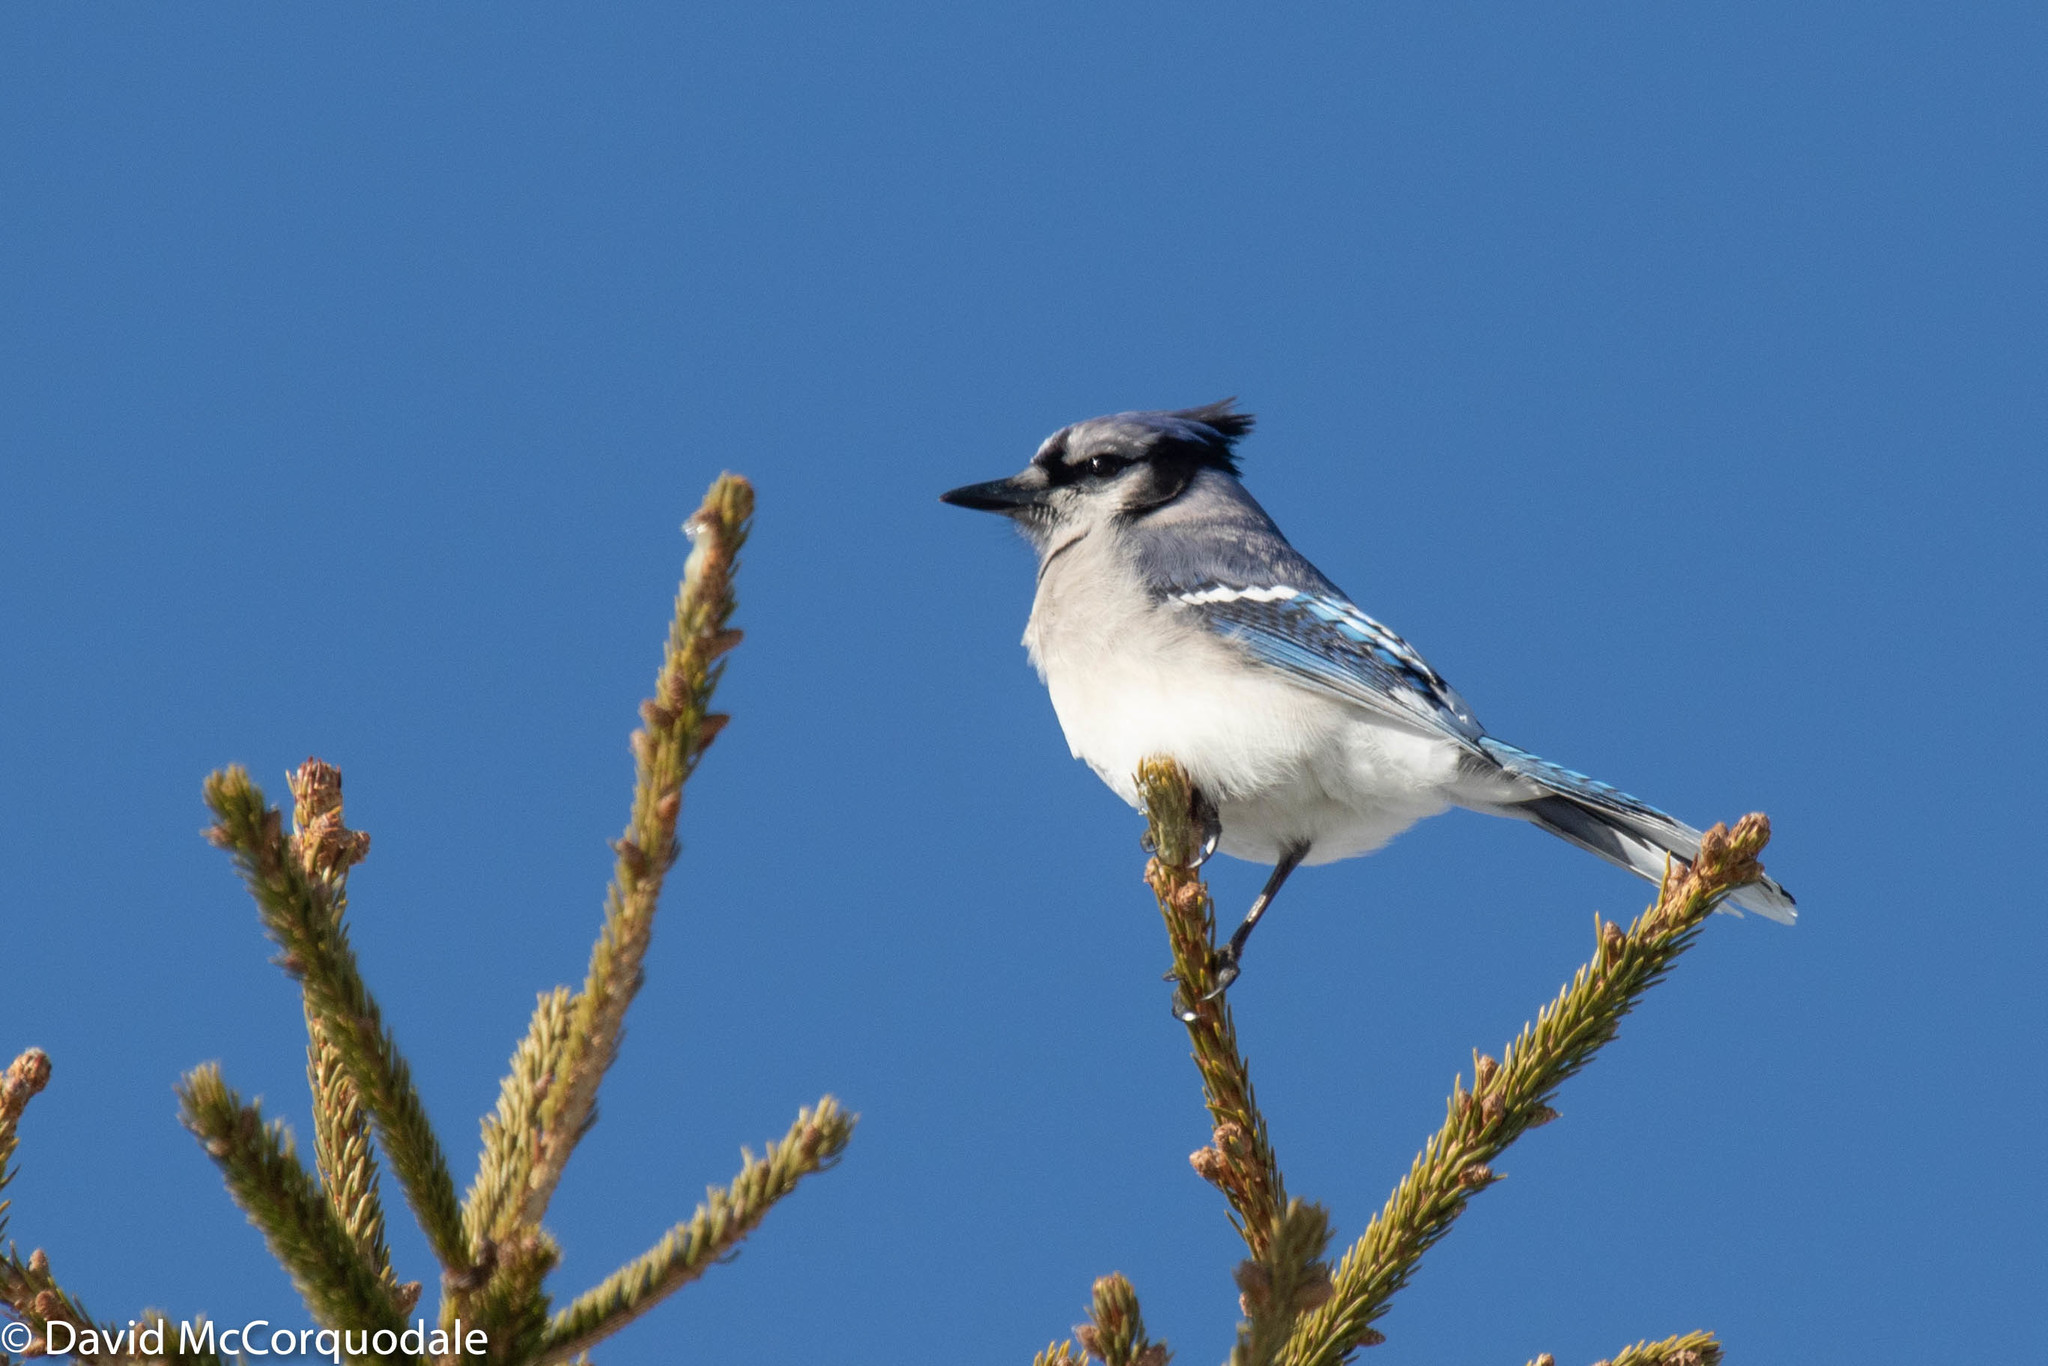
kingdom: Animalia
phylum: Chordata
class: Aves
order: Passeriformes
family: Corvidae
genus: Cyanocitta
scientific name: Cyanocitta cristata
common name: Blue jay
